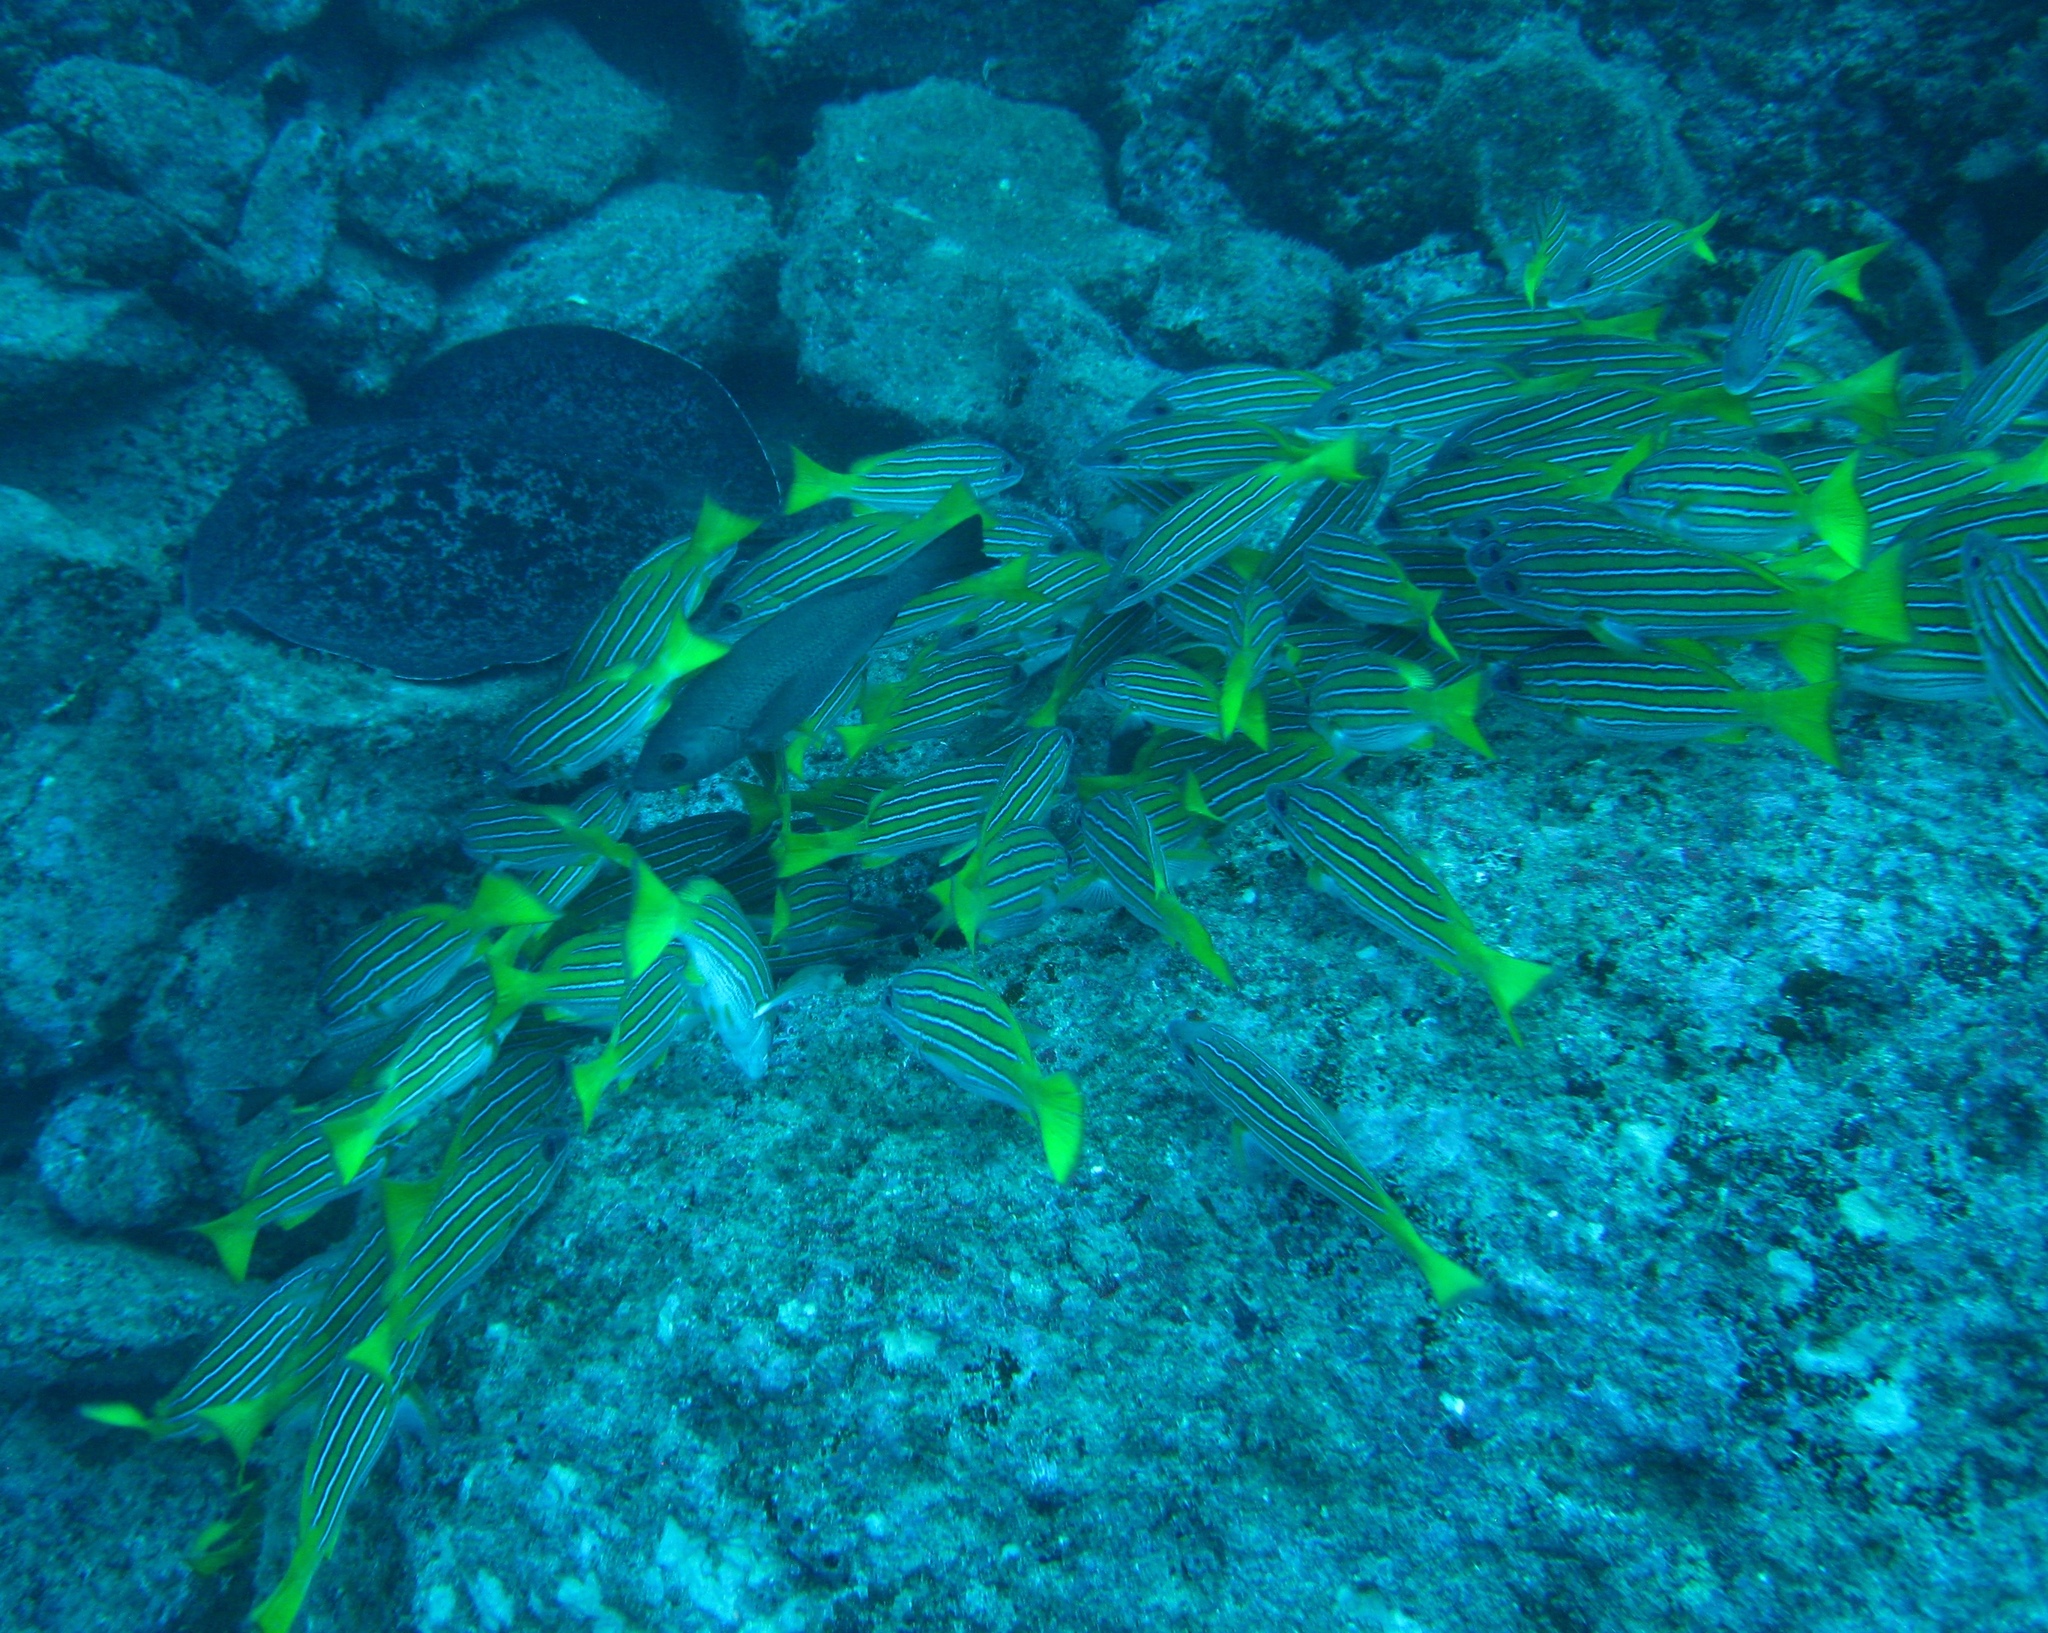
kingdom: Animalia
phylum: Chordata
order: Perciformes
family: Lutjanidae
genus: Lutjanus
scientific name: Lutjanus viridis
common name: Blue and gold snapper
